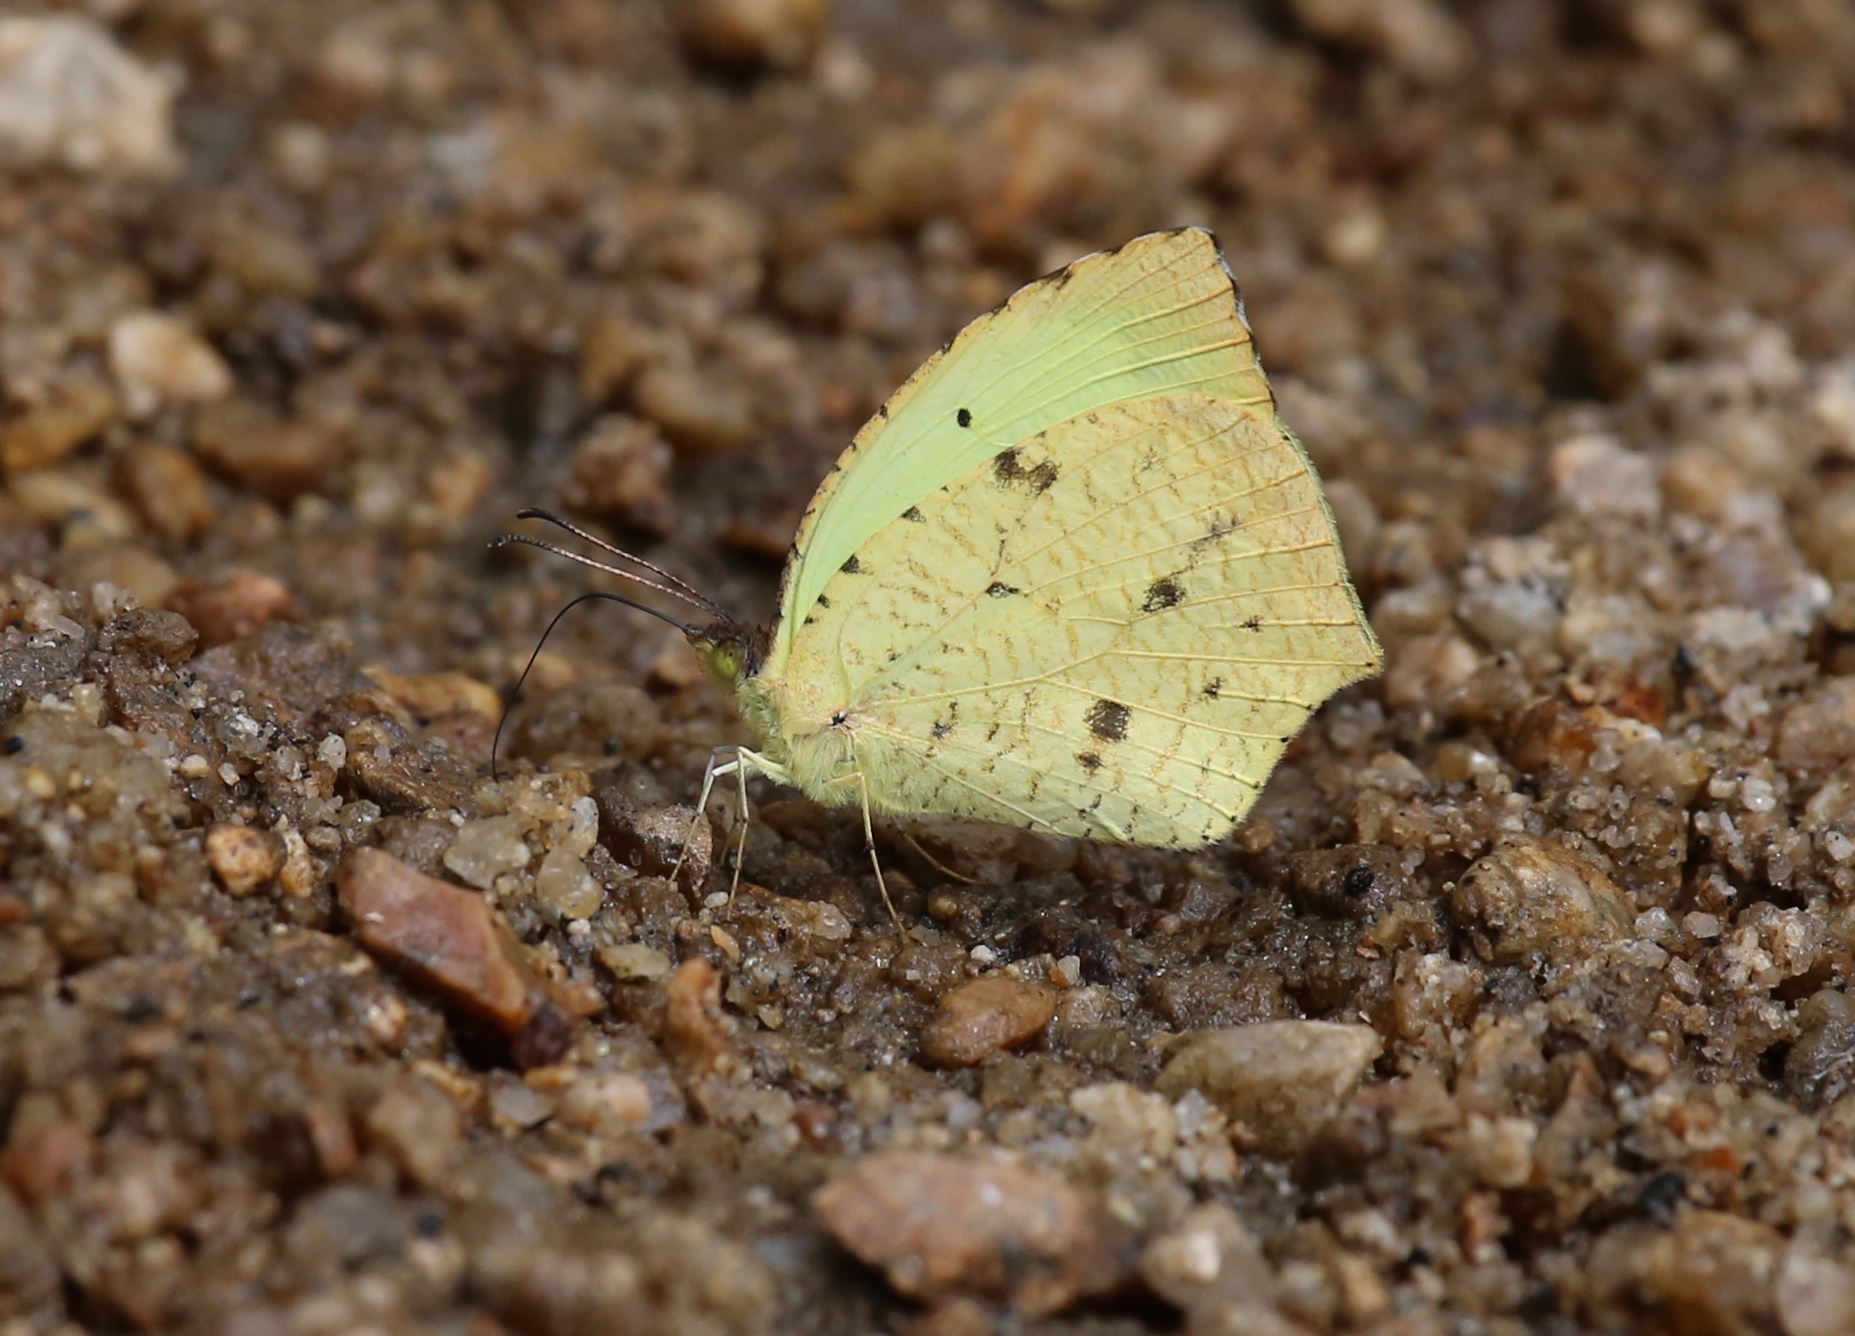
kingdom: Animalia
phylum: Arthropoda
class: Insecta
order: Lepidoptera
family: Pieridae
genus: Abaeis
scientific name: Abaeis salome
